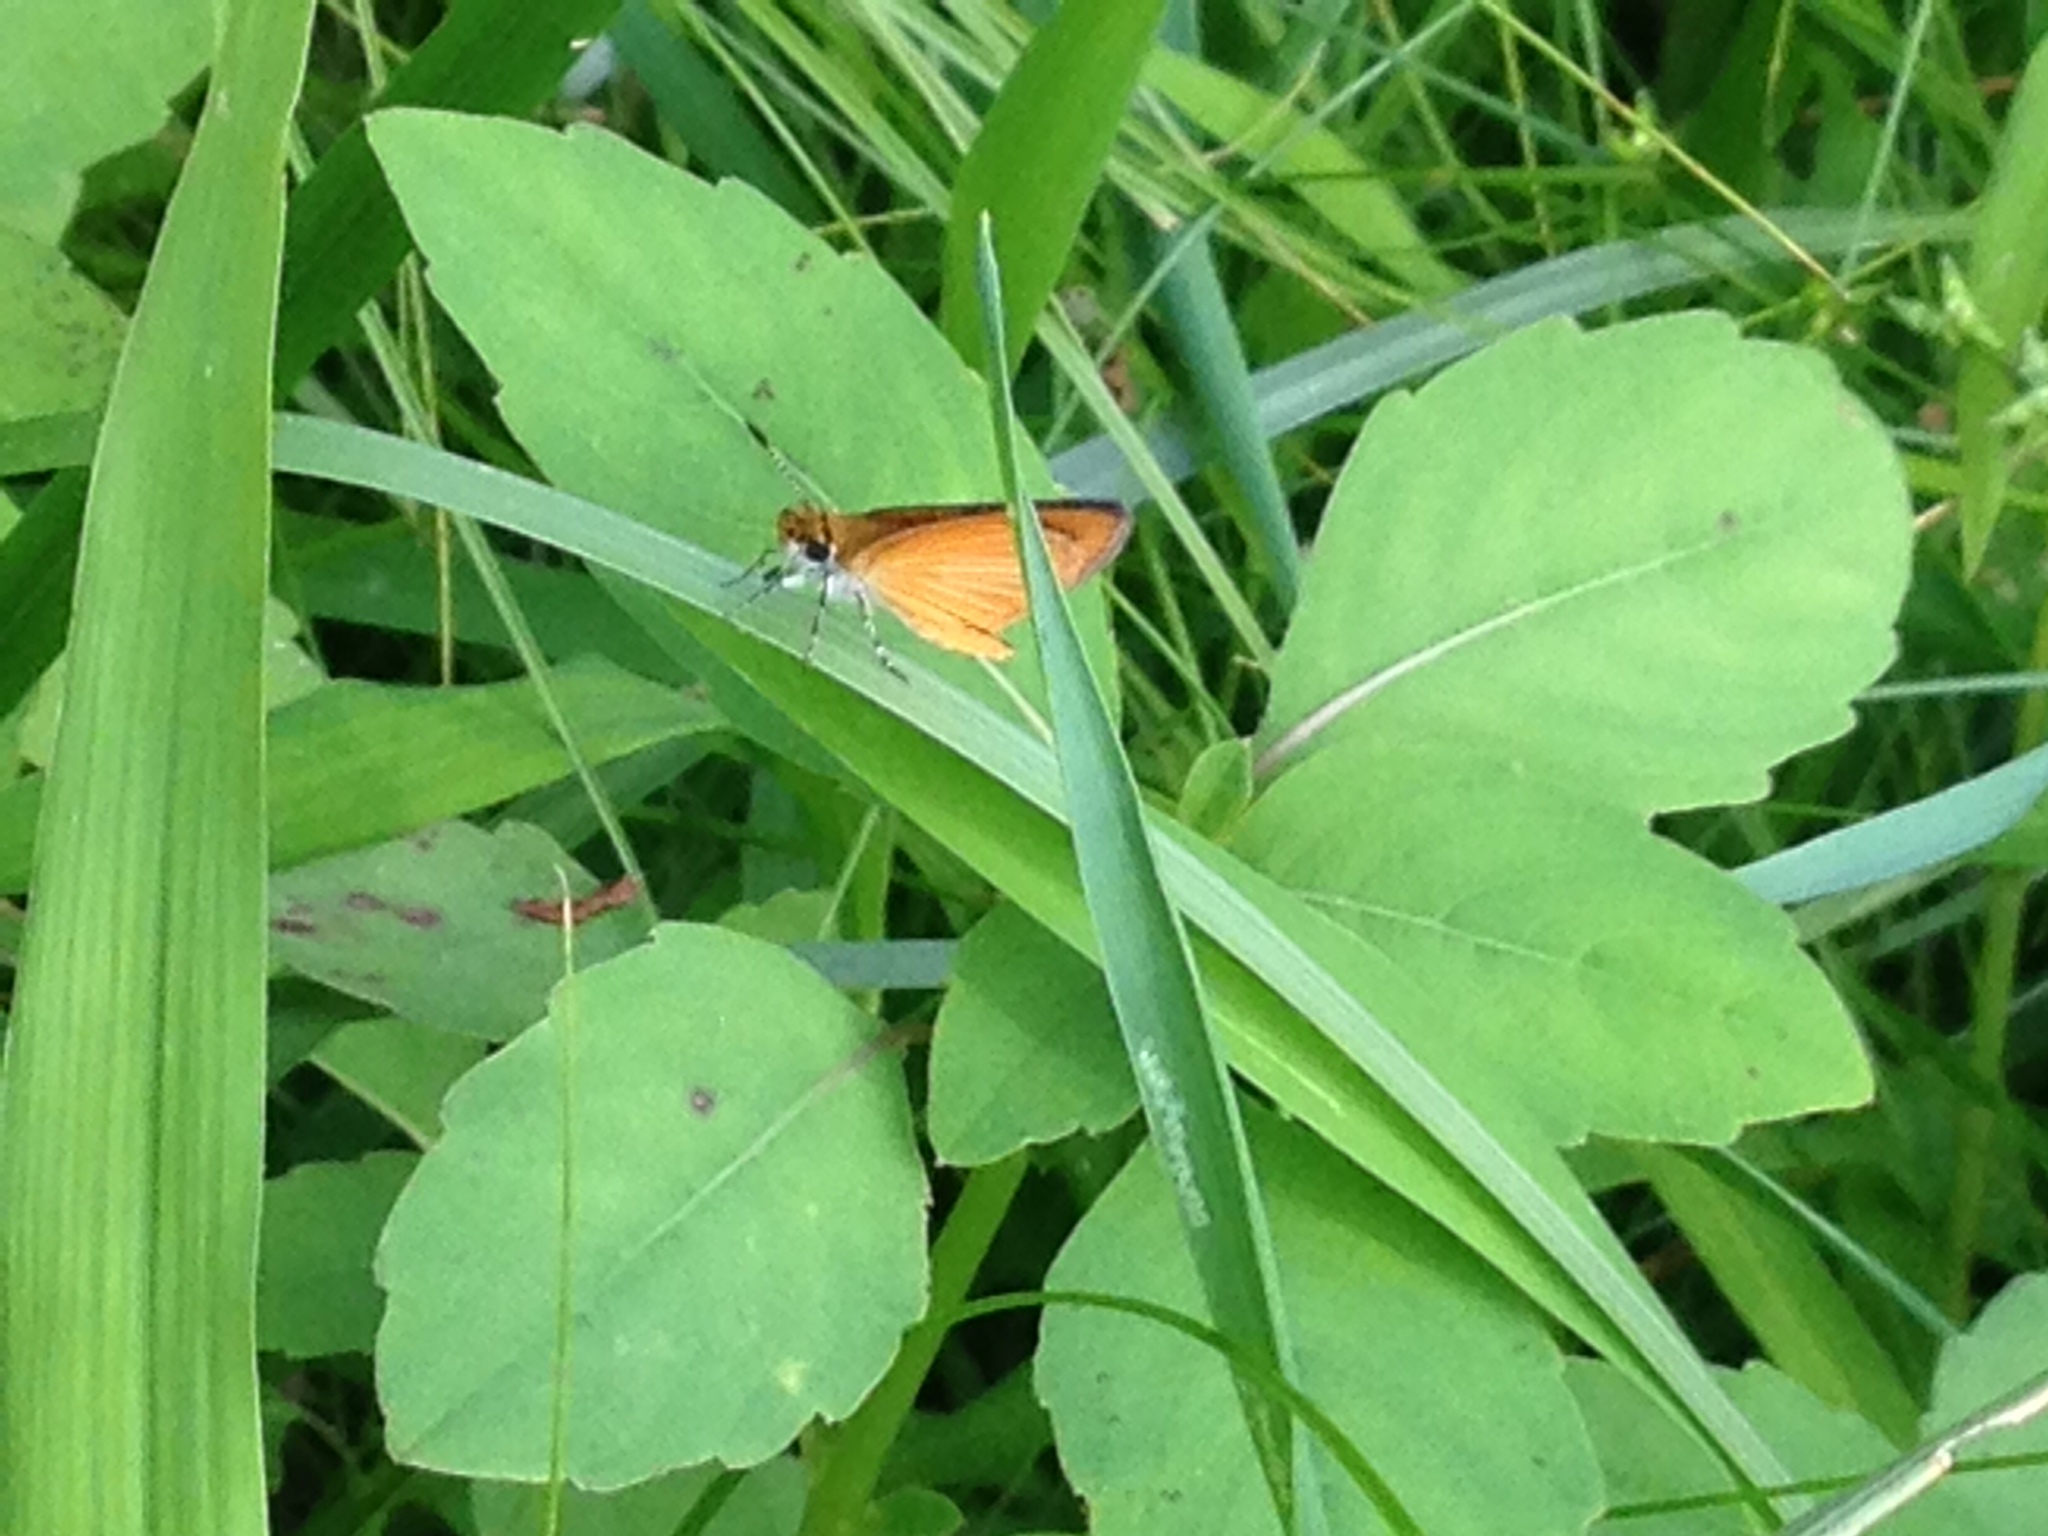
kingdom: Animalia
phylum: Arthropoda
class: Insecta
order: Lepidoptera
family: Hesperiidae
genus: Ancyloxypha
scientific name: Ancyloxypha numitor
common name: Least skipper
